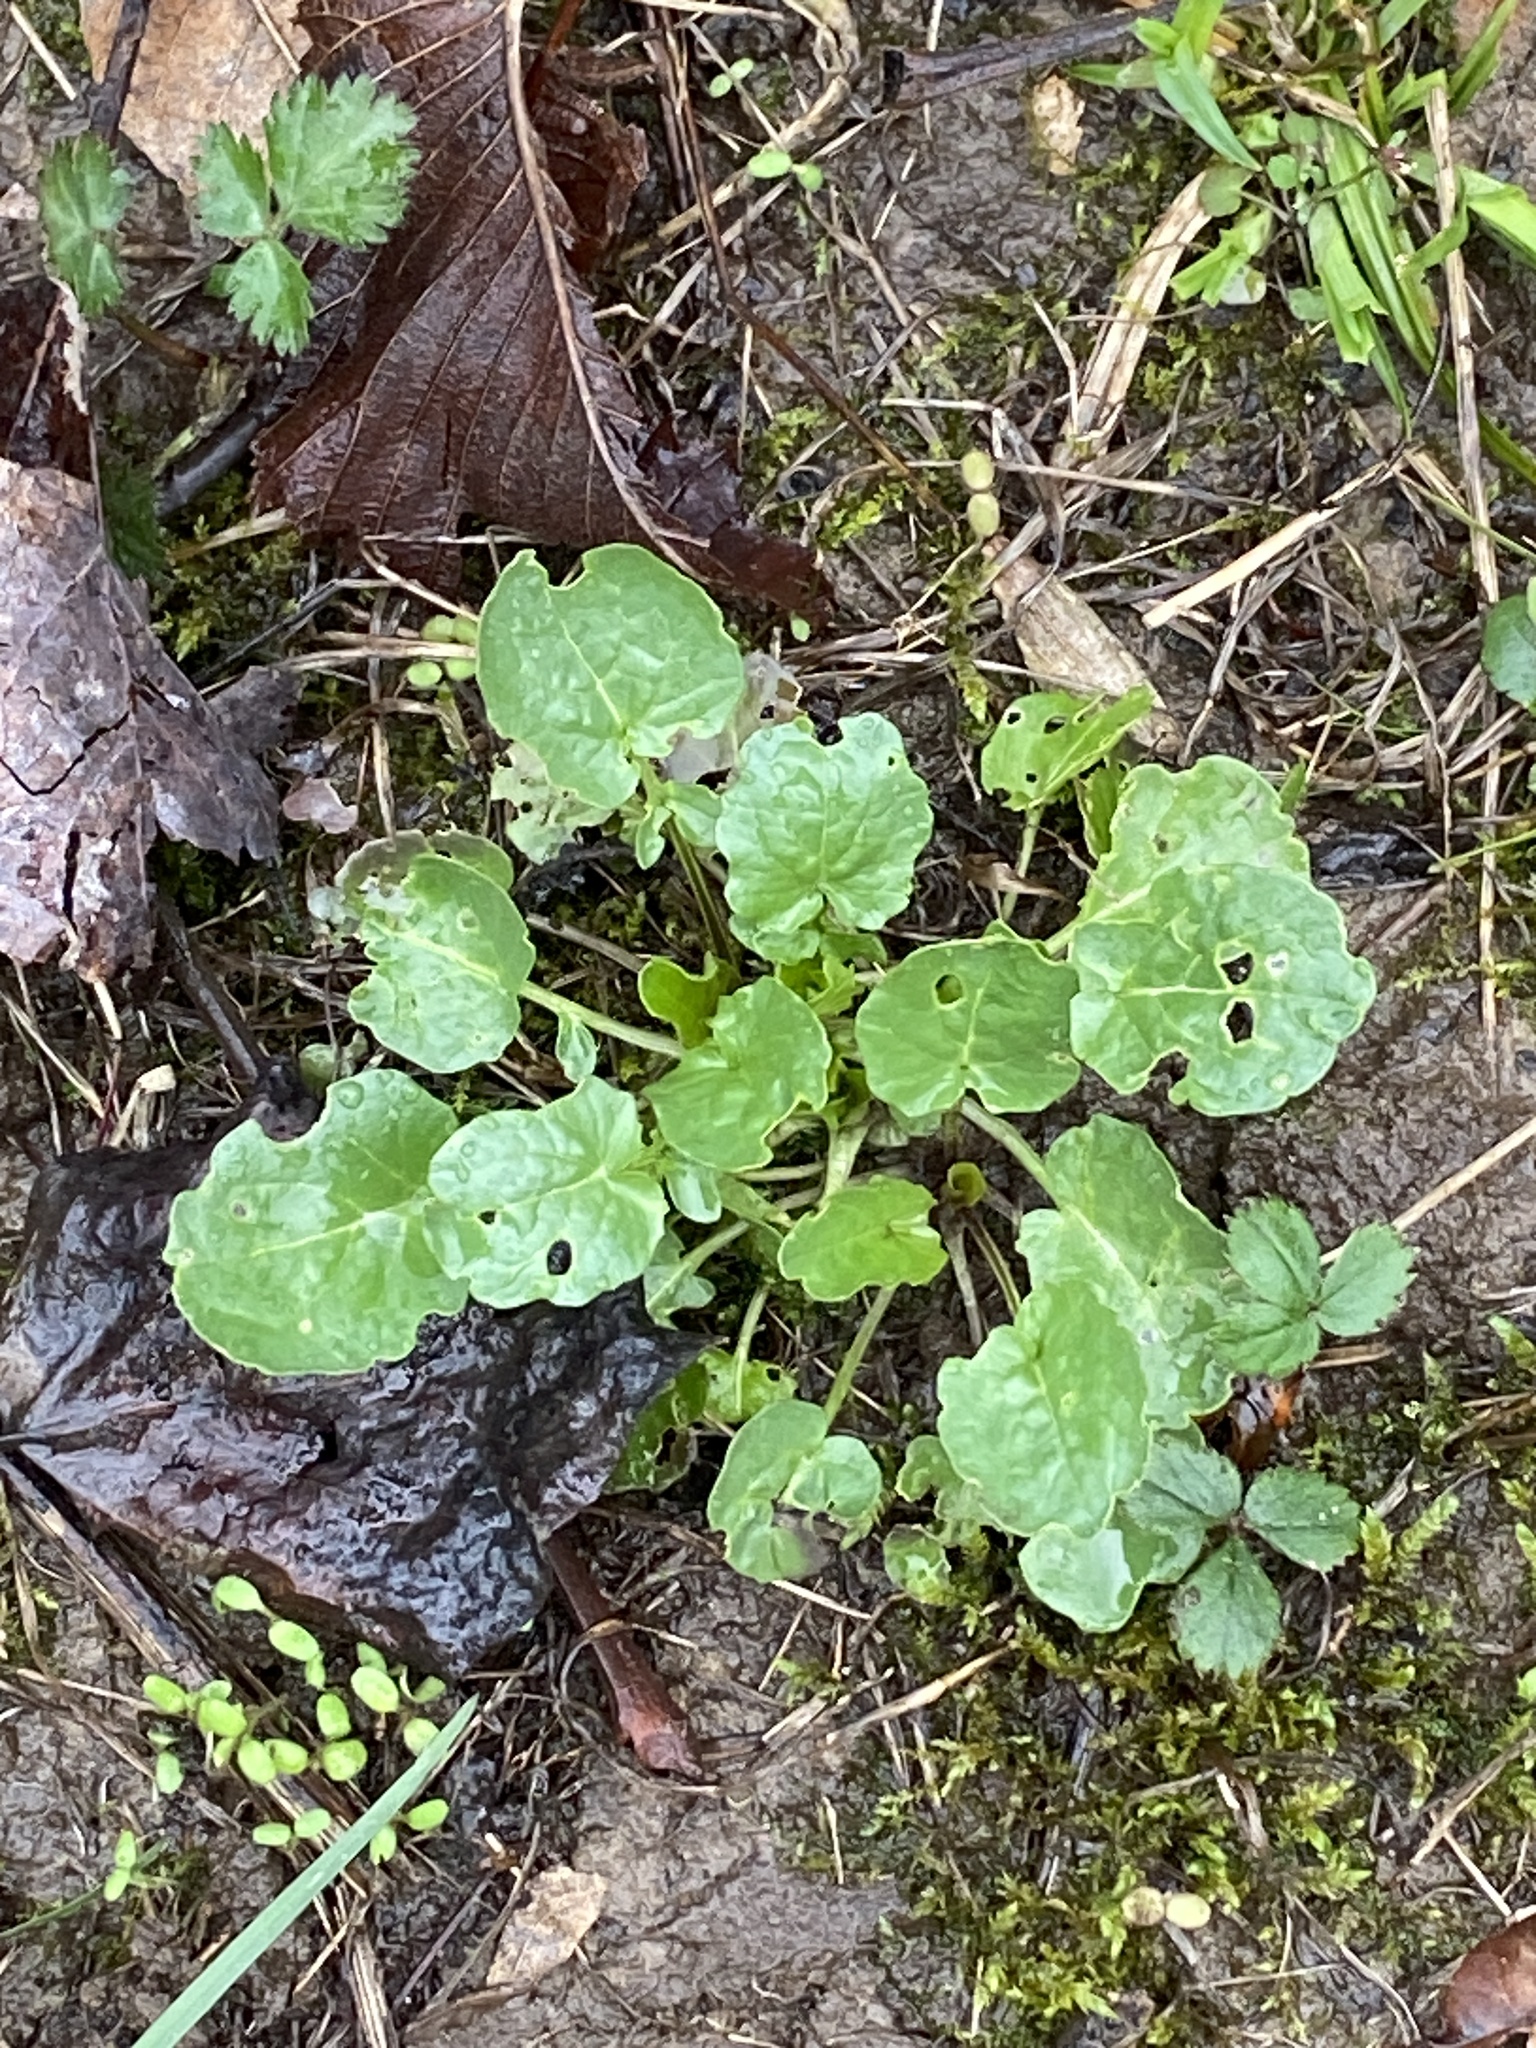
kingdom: Plantae
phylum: Tracheophyta
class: Magnoliopsida
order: Brassicales
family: Brassicaceae
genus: Barbarea
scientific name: Barbarea vulgaris
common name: Cressy-greens
